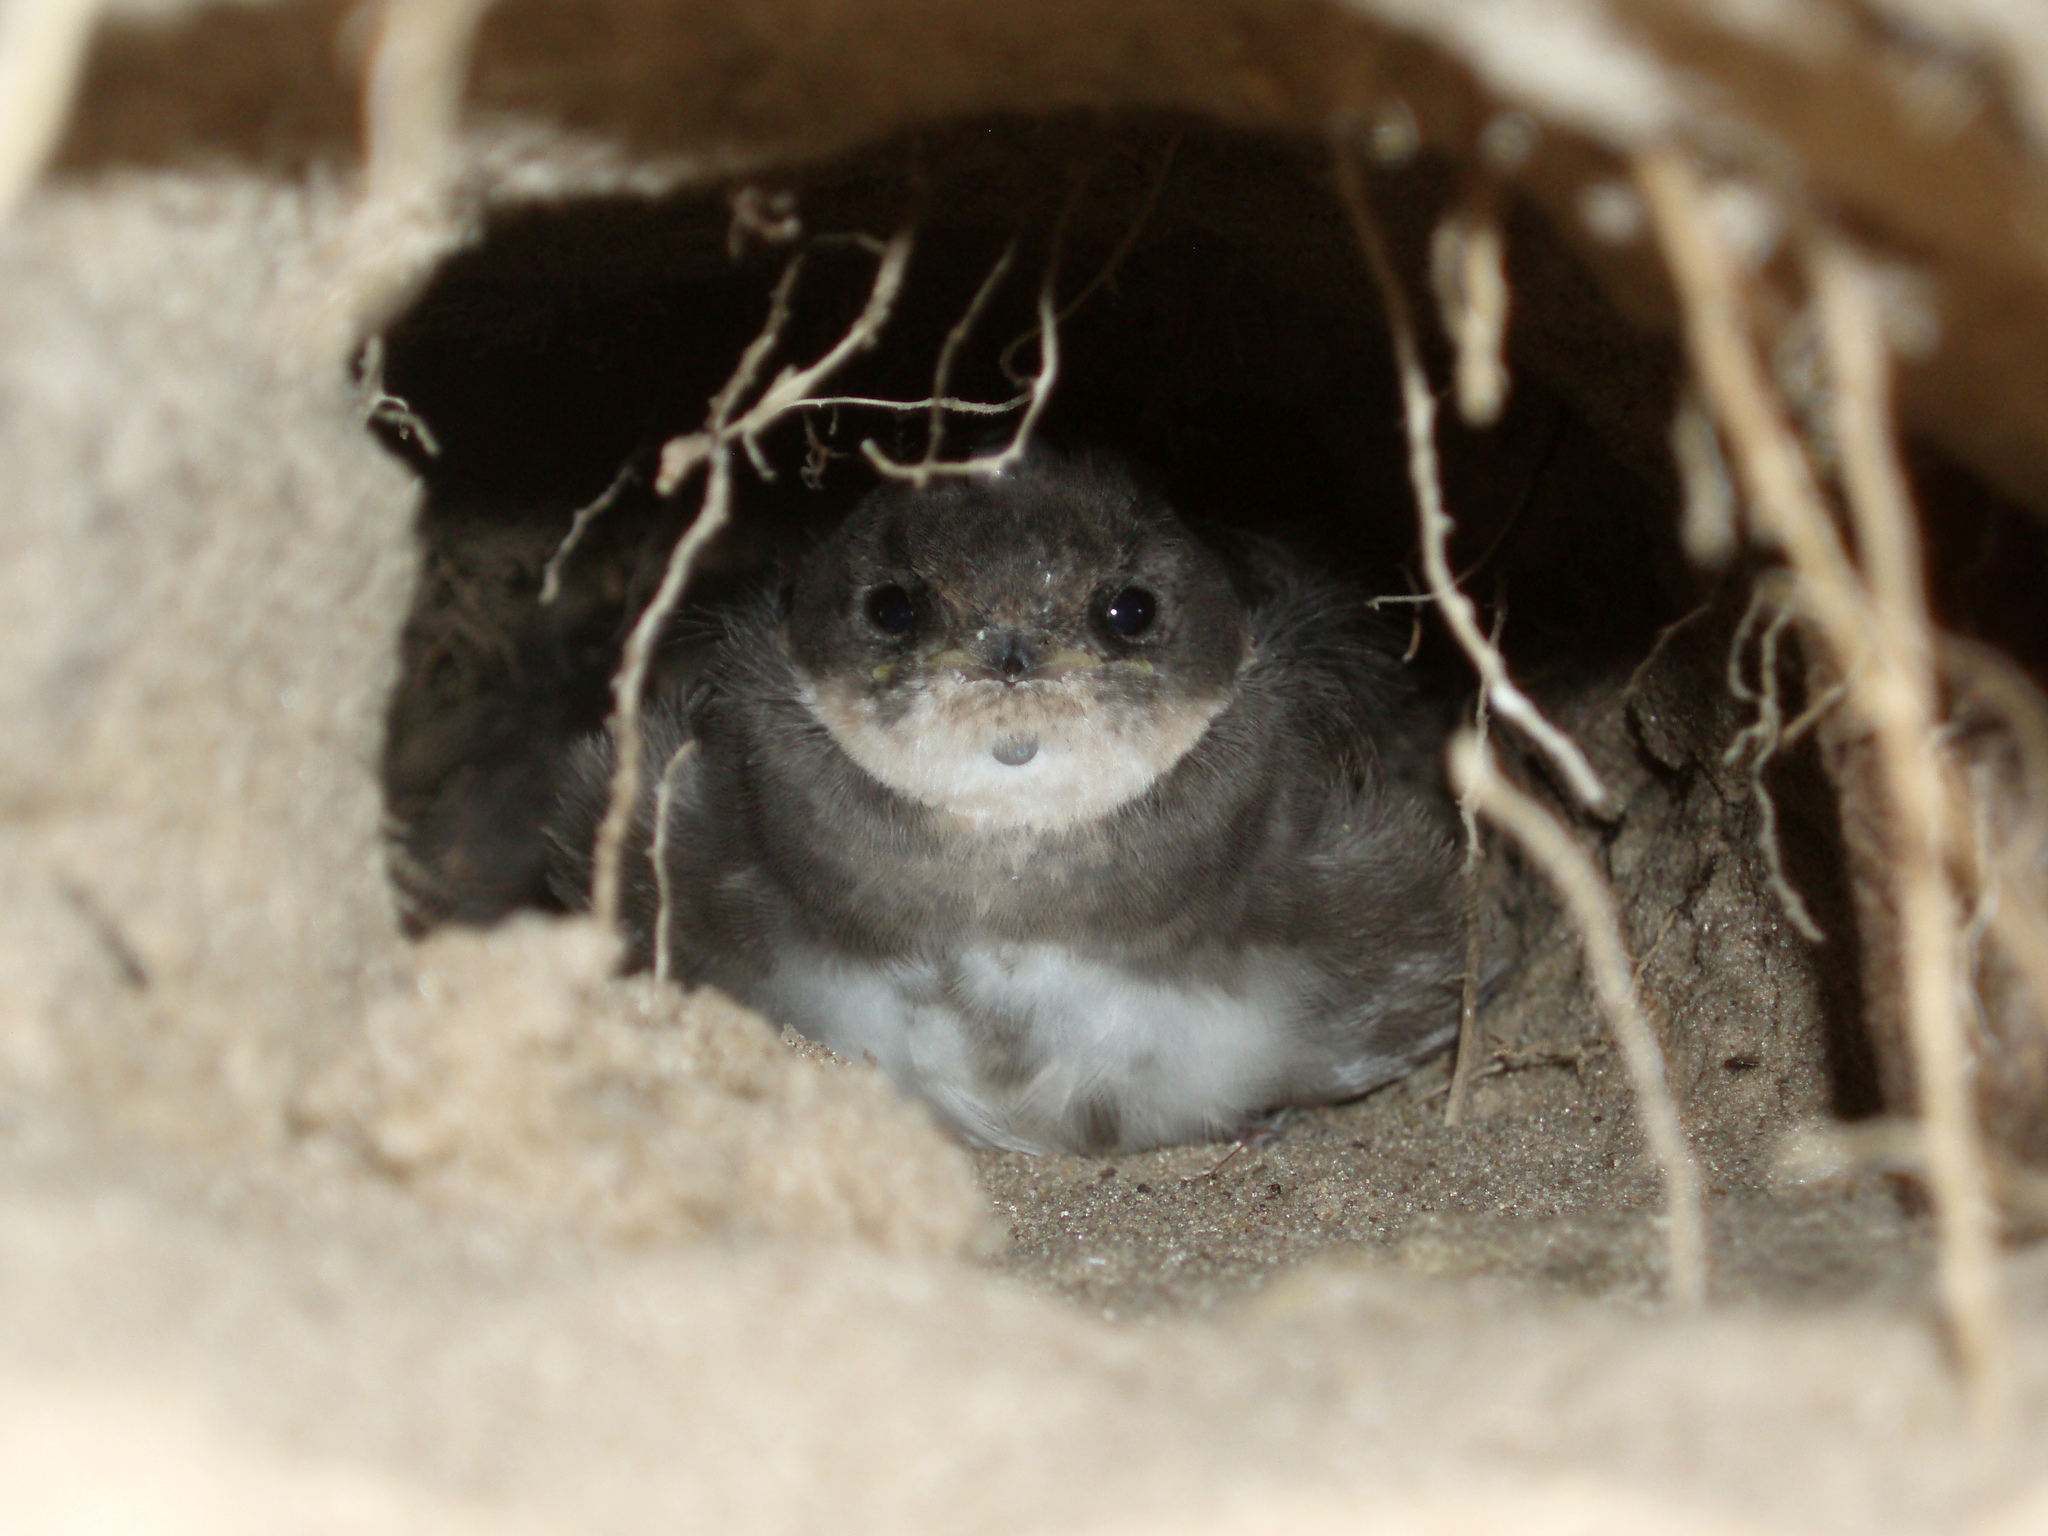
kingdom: Animalia
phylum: Chordata
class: Aves
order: Passeriformes
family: Hirundinidae
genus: Riparia
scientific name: Riparia riparia
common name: Sand martin
